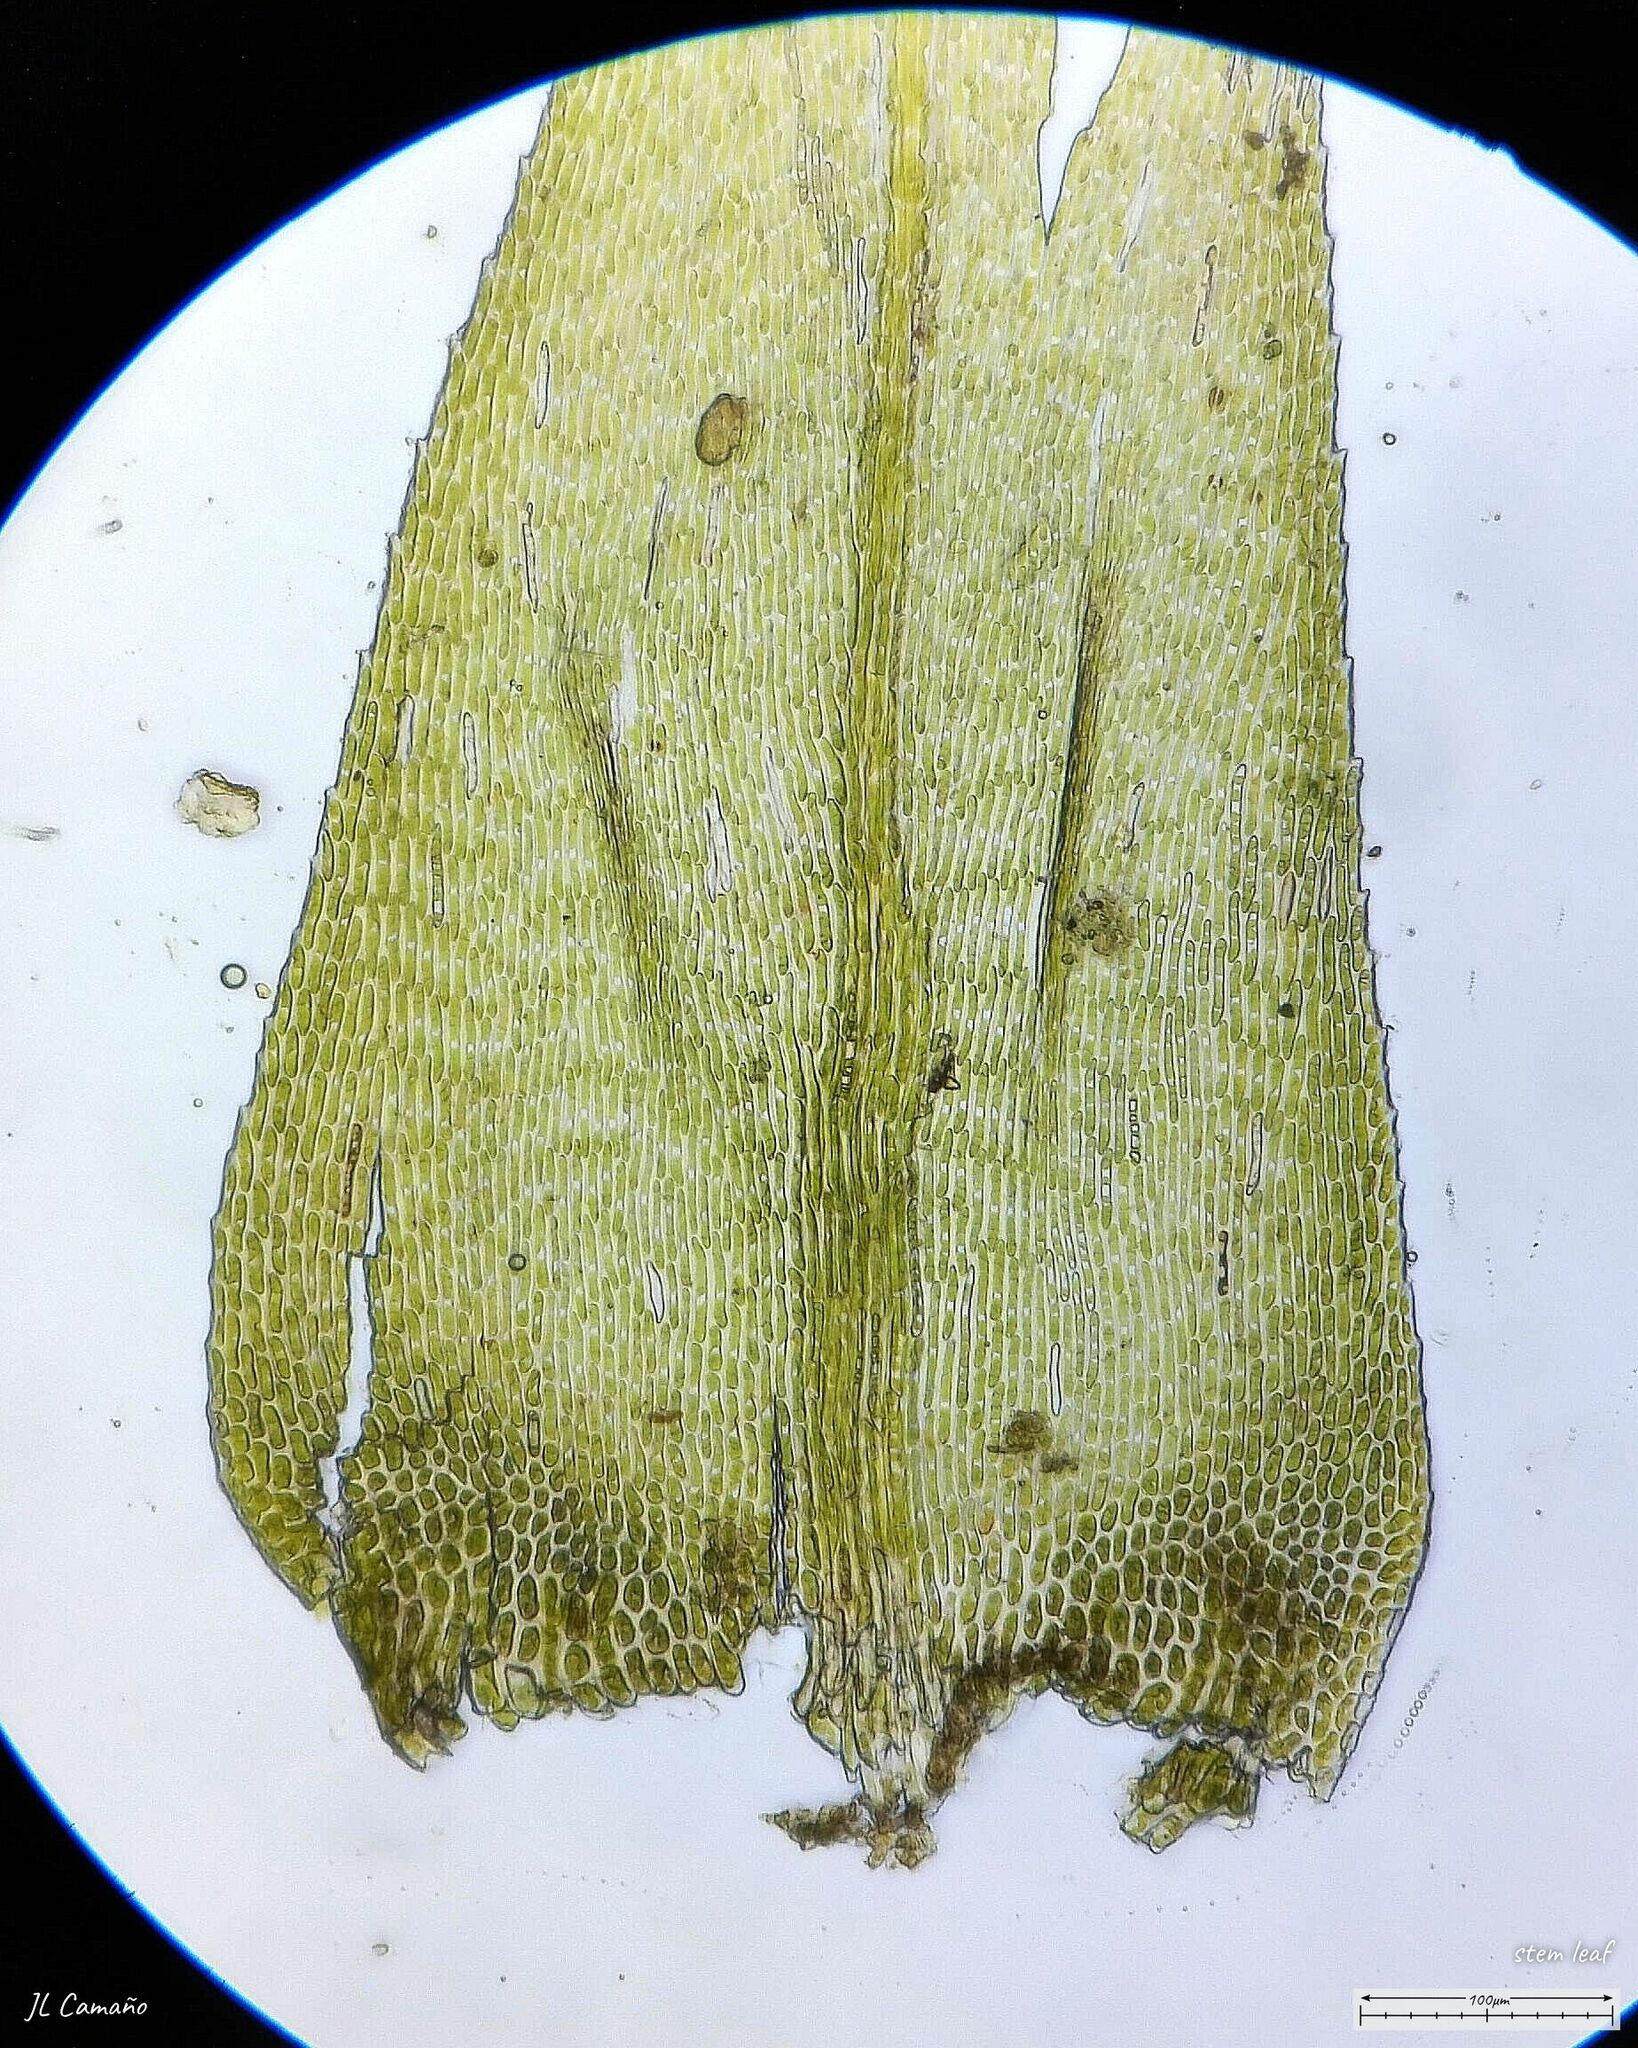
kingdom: Plantae
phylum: Bryophyta
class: Bryopsida
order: Hypnales
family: Lembophyllaceae
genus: Pseudisothecium
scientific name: Pseudisothecium myosuroides
